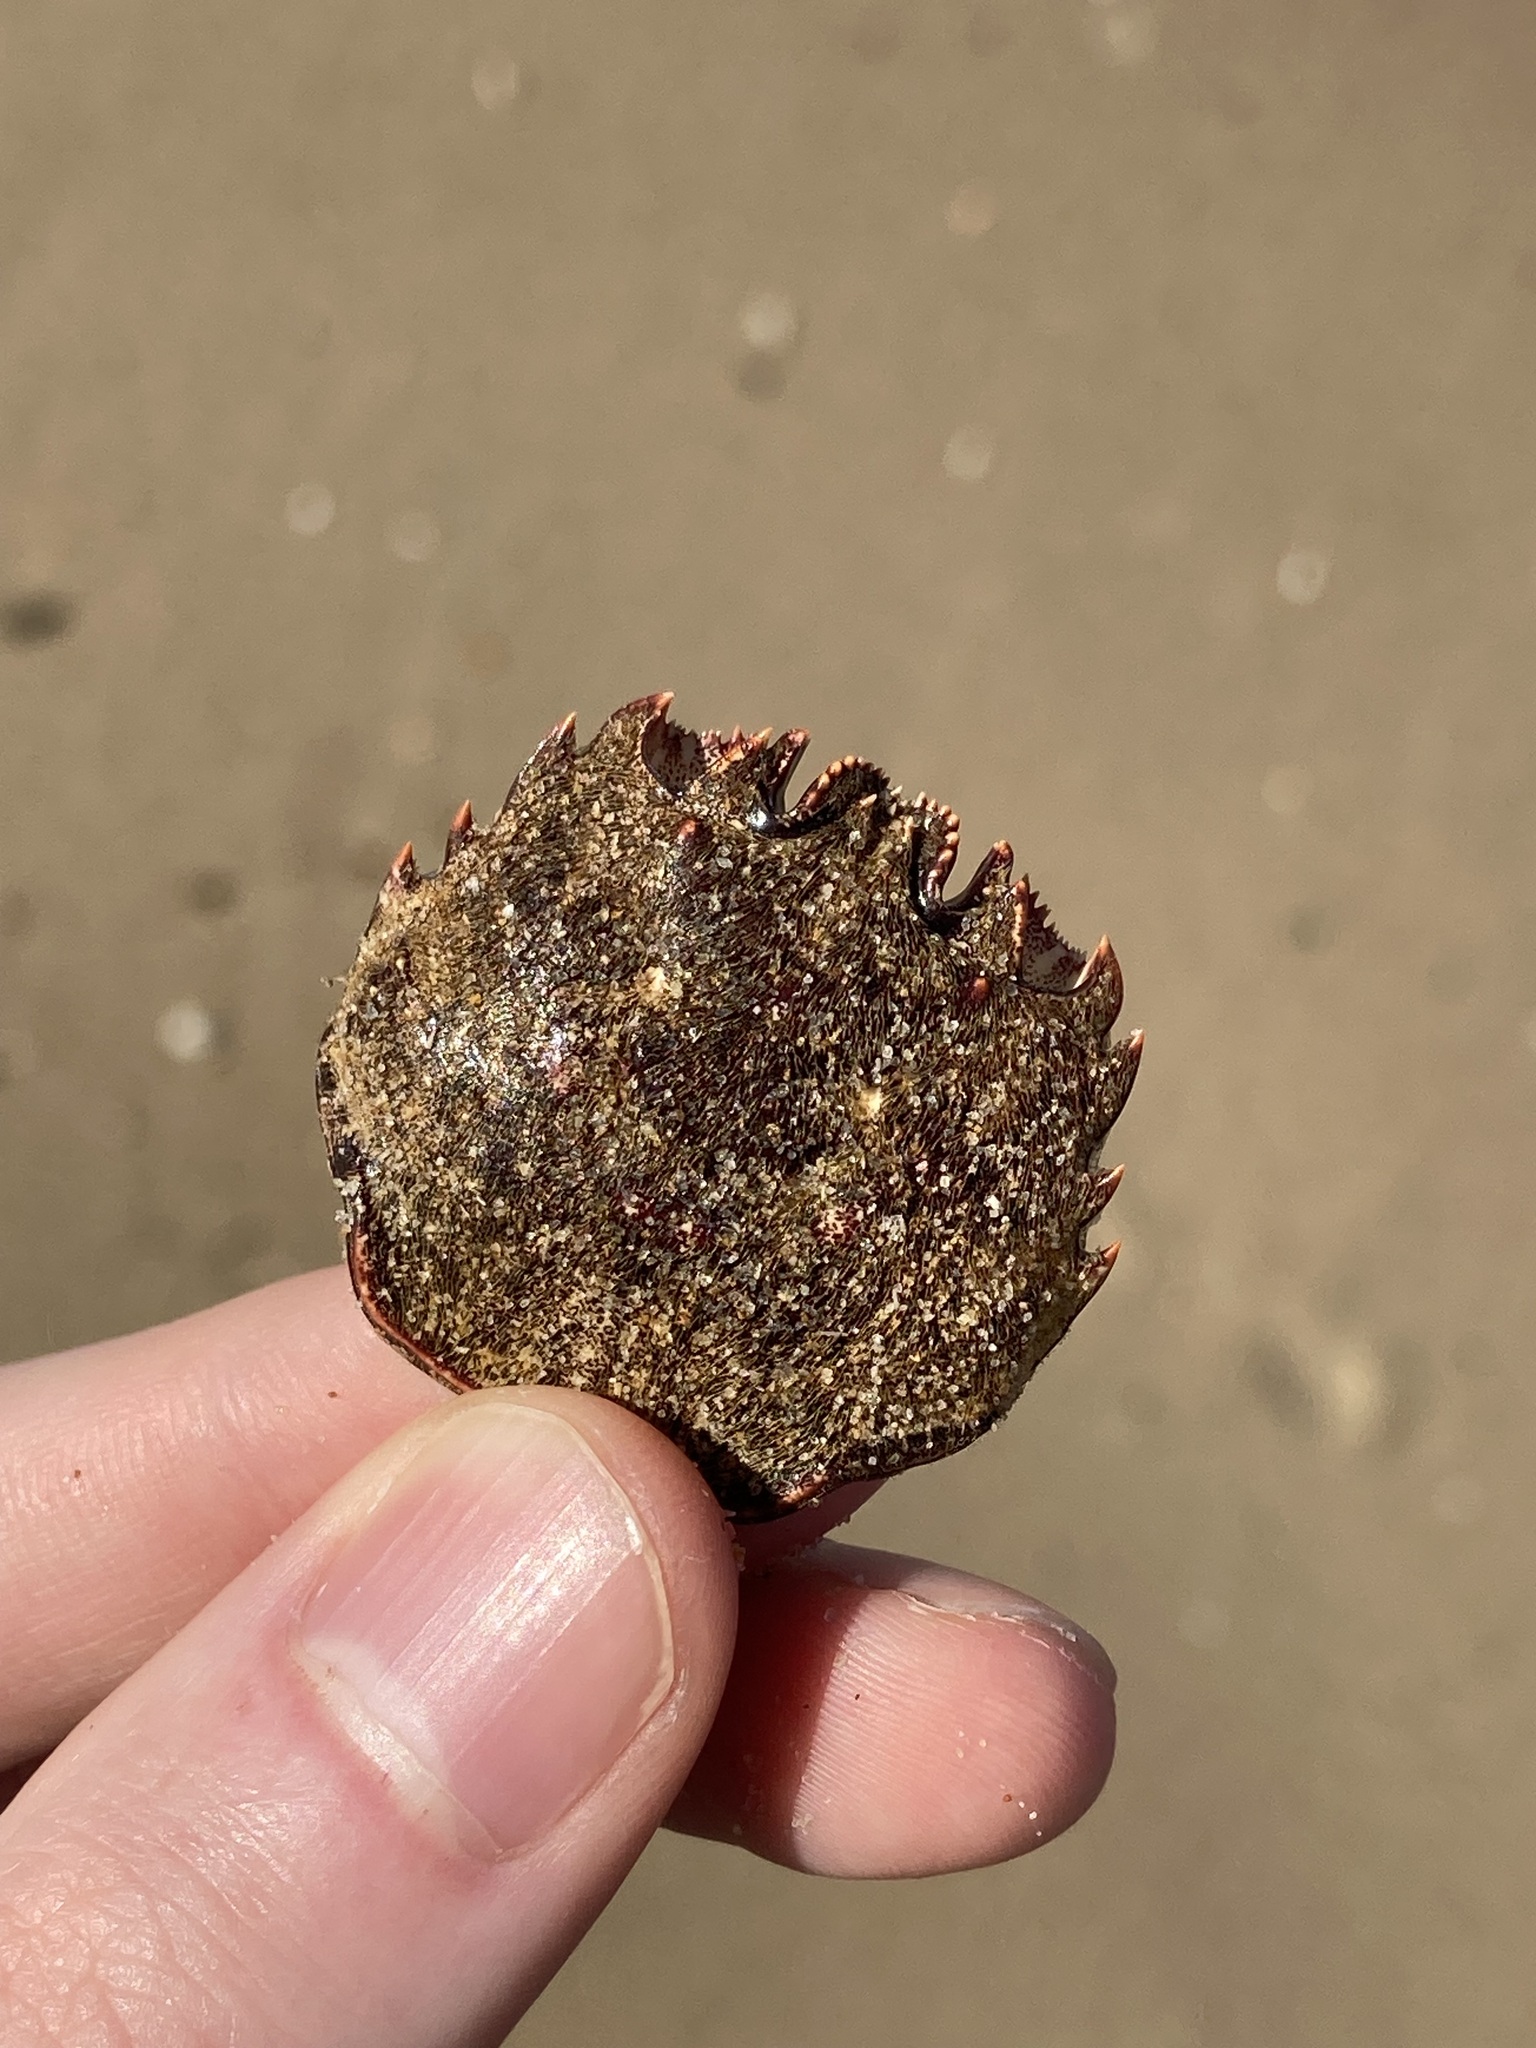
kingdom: Animalia
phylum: Arthropoda
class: Malacostraca
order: Decapoda
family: Plagusiidae
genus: Guinusia
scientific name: Guinusia chabrus
